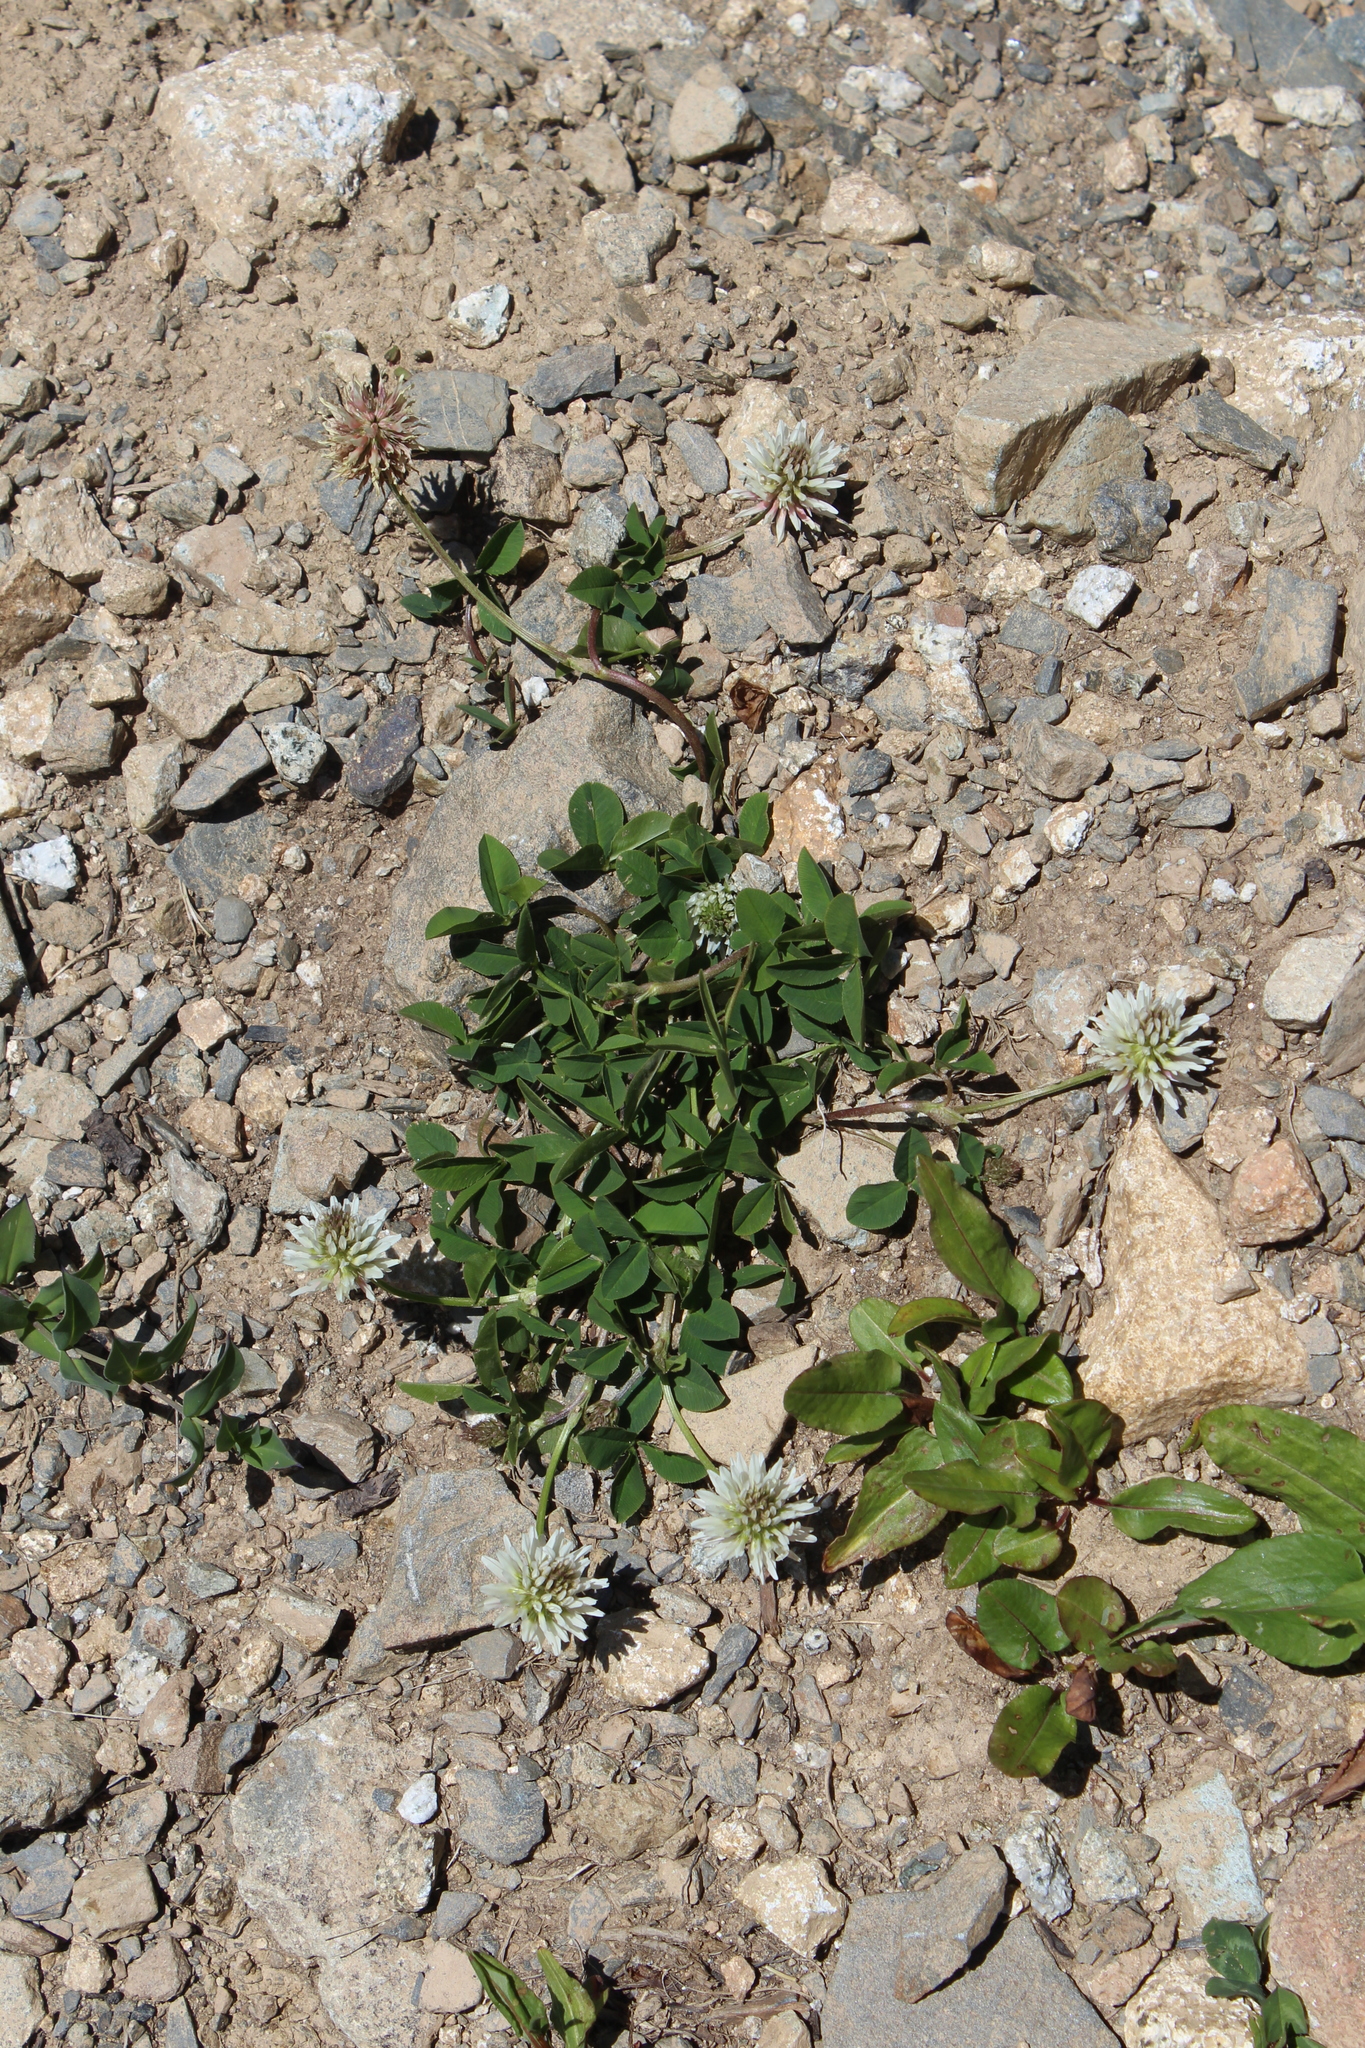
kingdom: Plantae
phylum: Tracheophyta
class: Magnoliopsida
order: Fabales
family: Fabaceae
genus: Trifolium
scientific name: Trifolium ambiguum
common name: Kura clover
